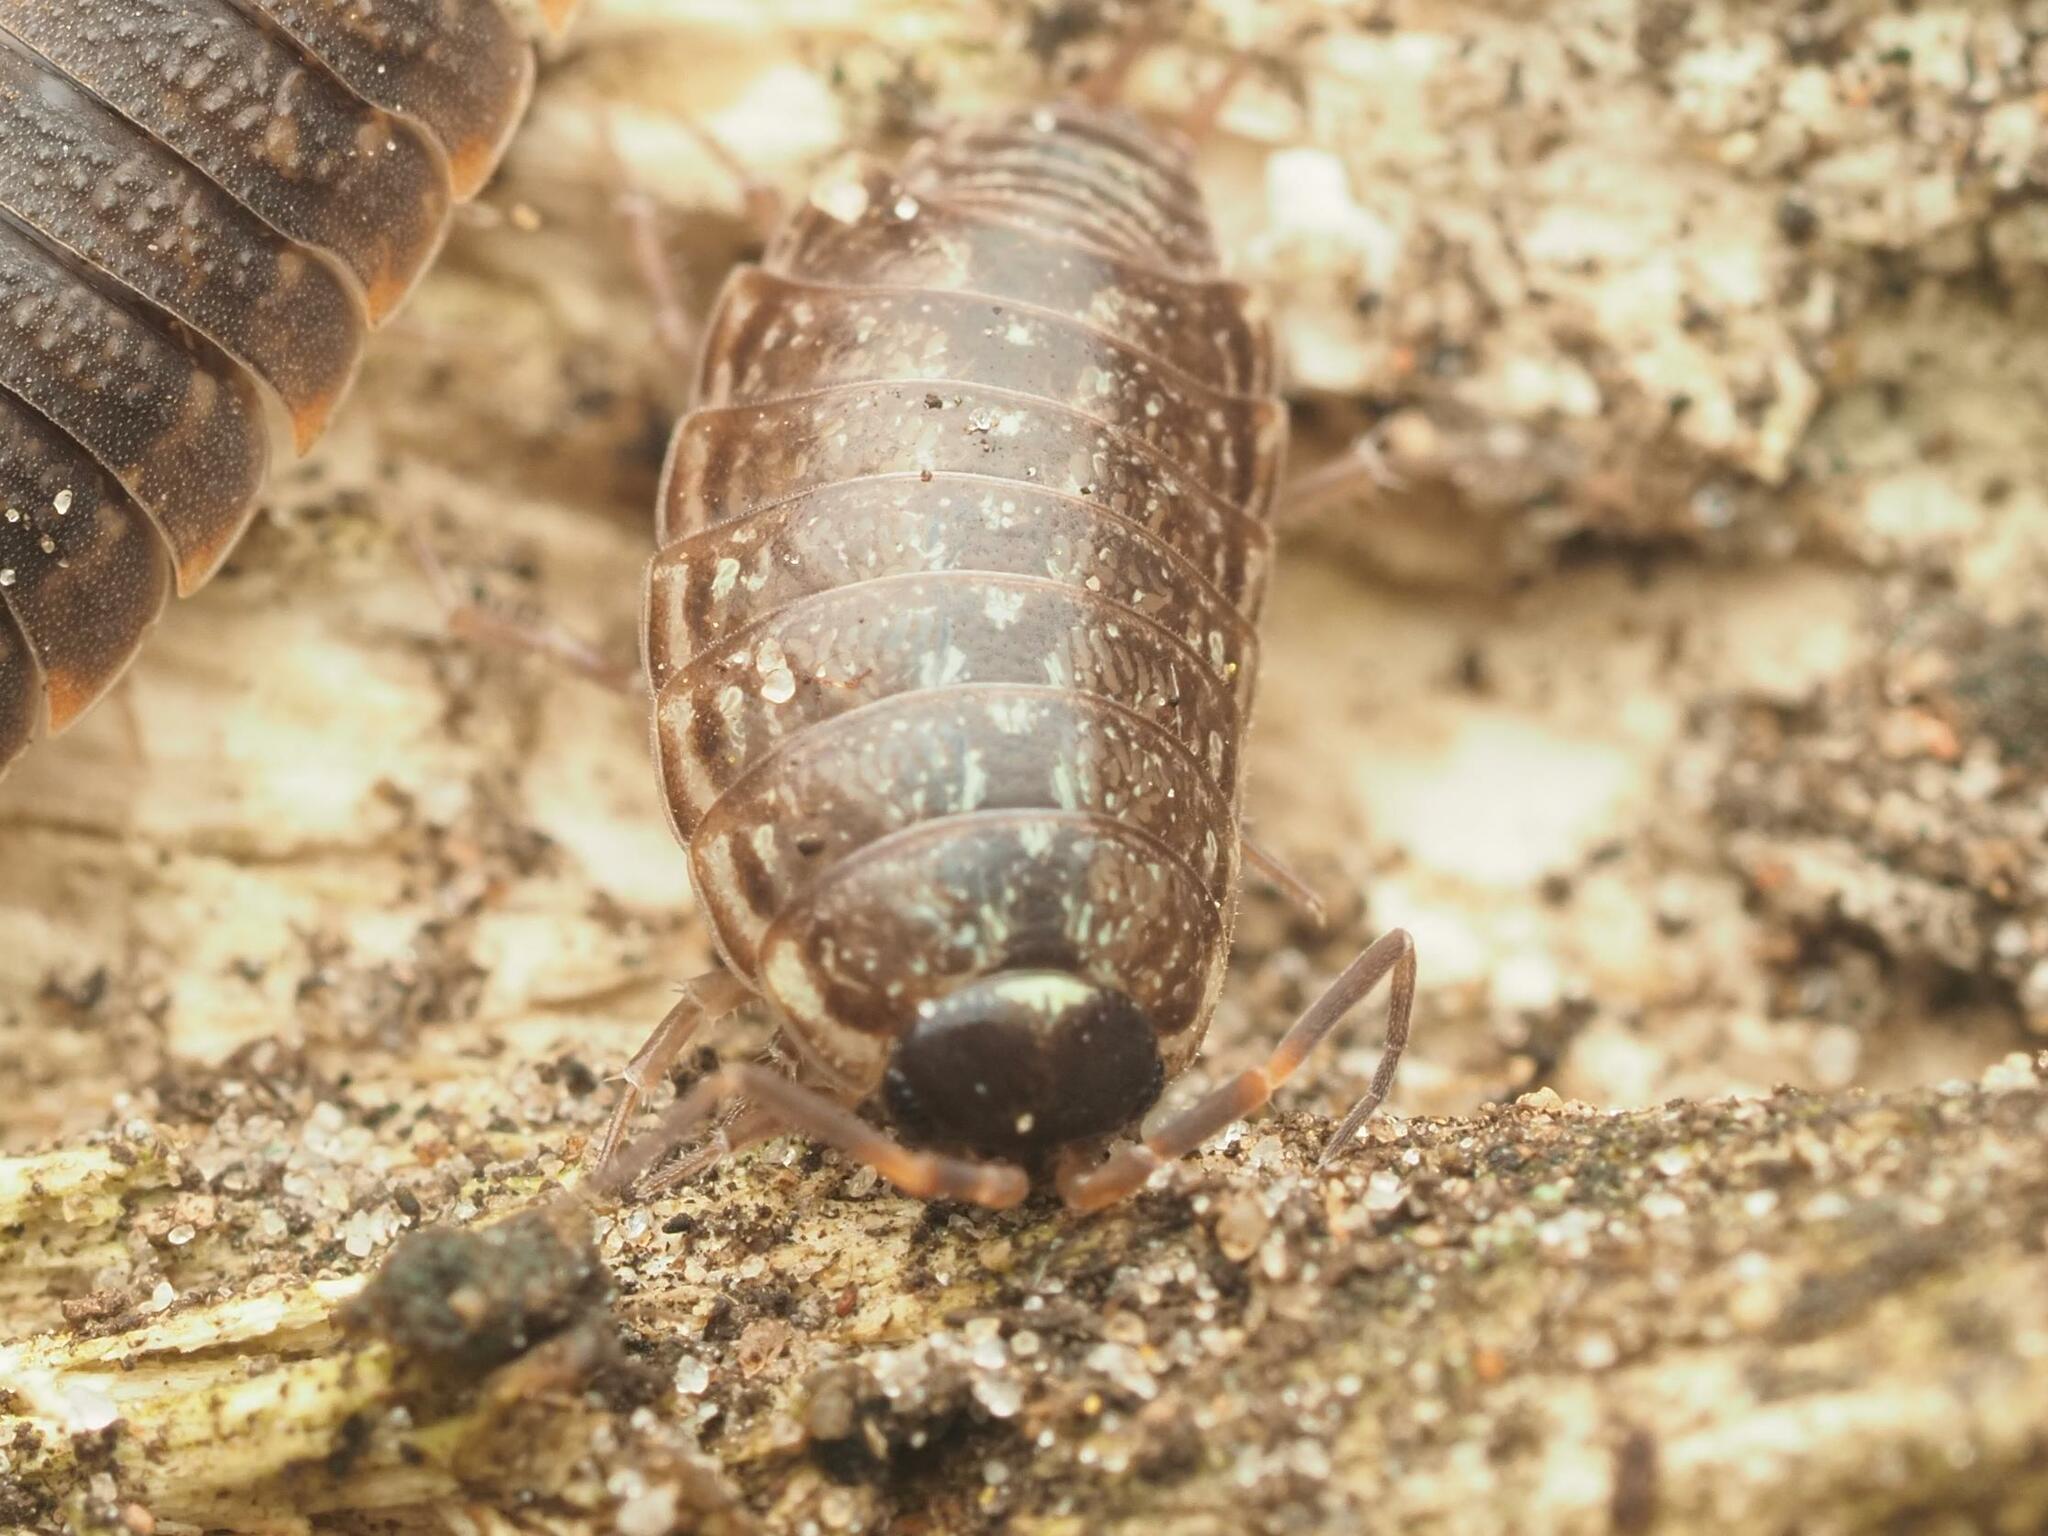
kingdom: Animalia
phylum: Arthropoda
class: Malacostraca
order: Isopoda
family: Philosciidae
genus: Philoscia
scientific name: Philoscia muscorum
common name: Common striped woodlouse
